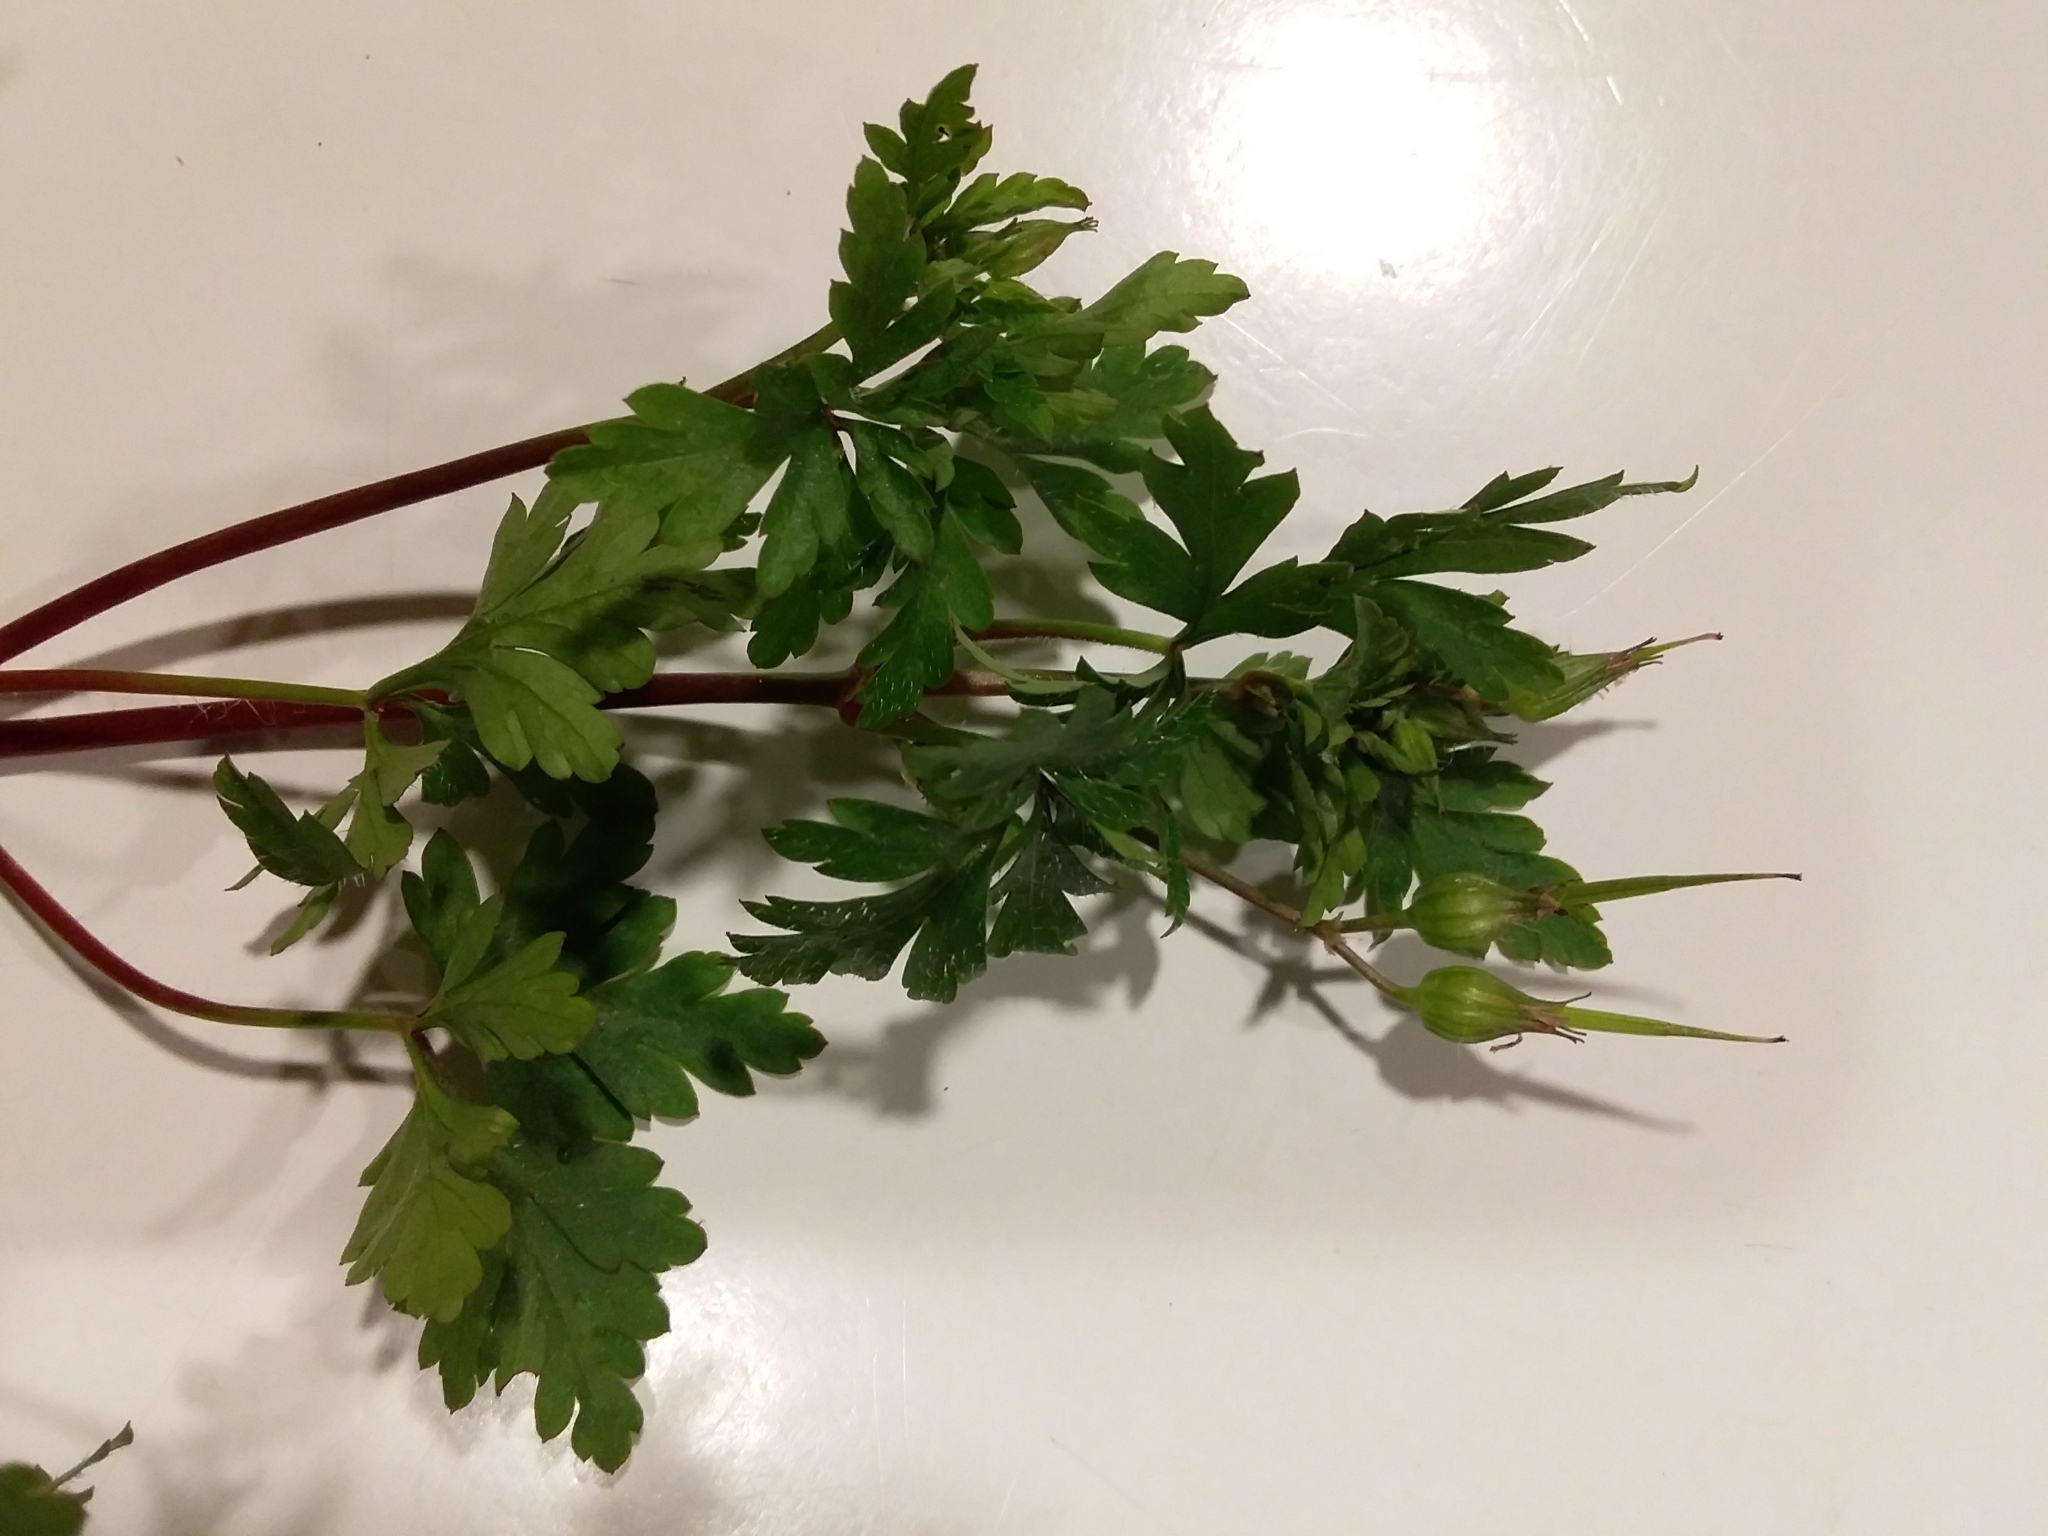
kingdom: Plantae
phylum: Tracheophyta
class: Magnoliopsida
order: Geraniales
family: Geraniaceae
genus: Geranium
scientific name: Geranium robertianum
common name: Herb-robert
